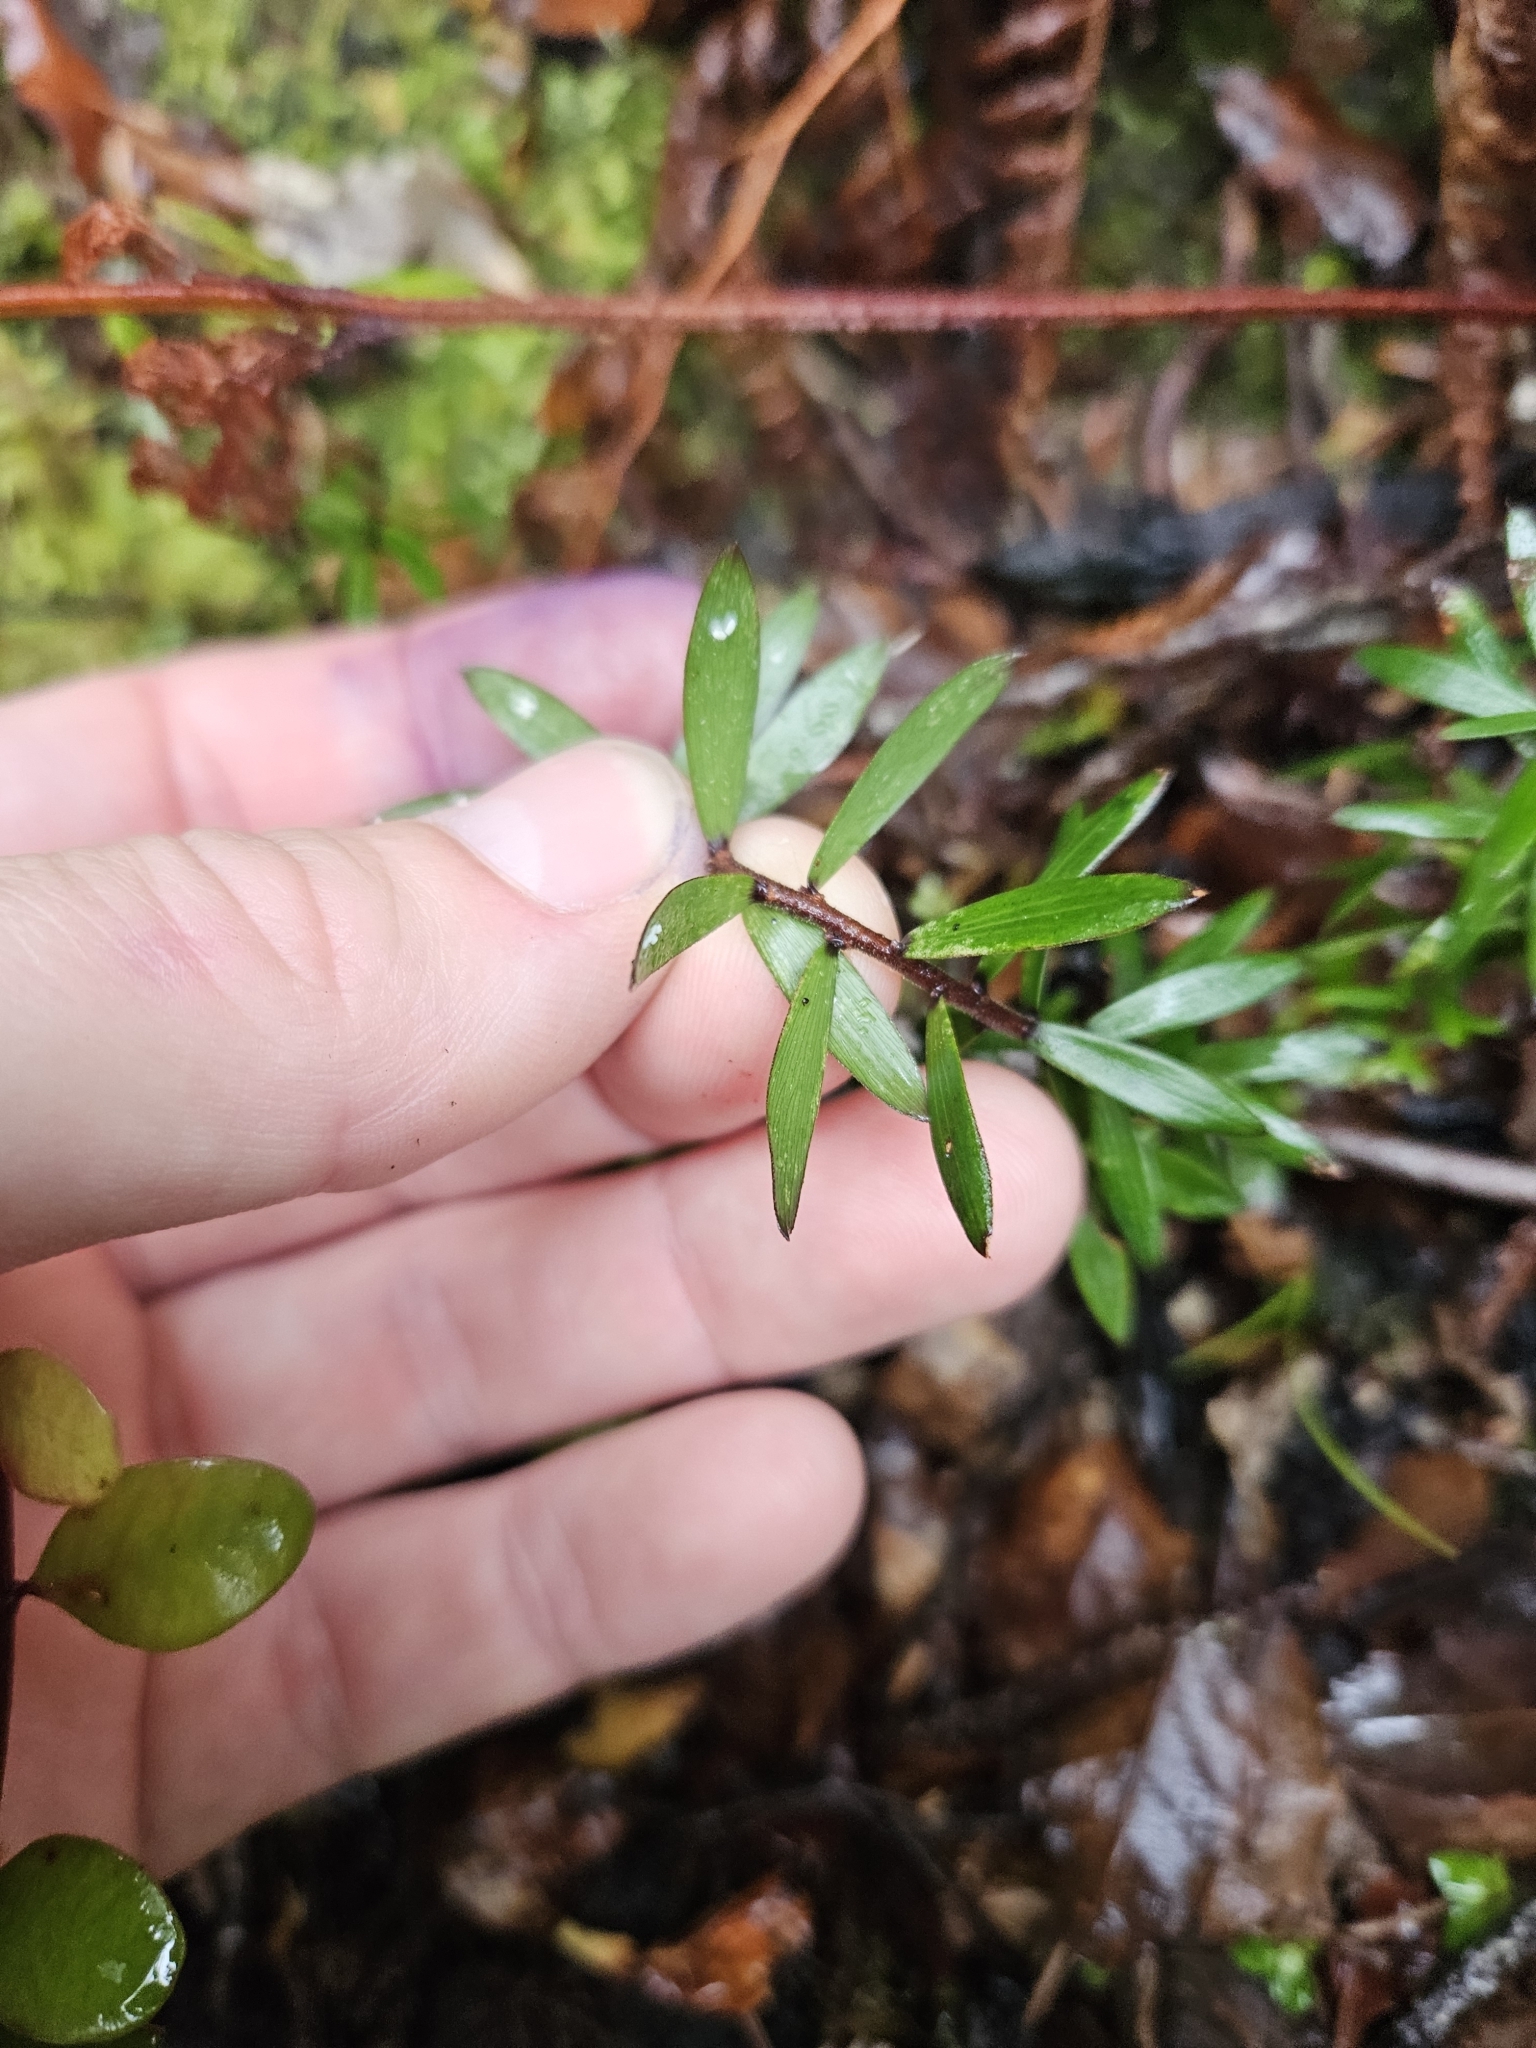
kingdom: Plantae
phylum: Tracheophyta
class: Magnoliopsida
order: Ericales
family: Ericaceae
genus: Leucopogon
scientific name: Leucopogon fasciculatus
